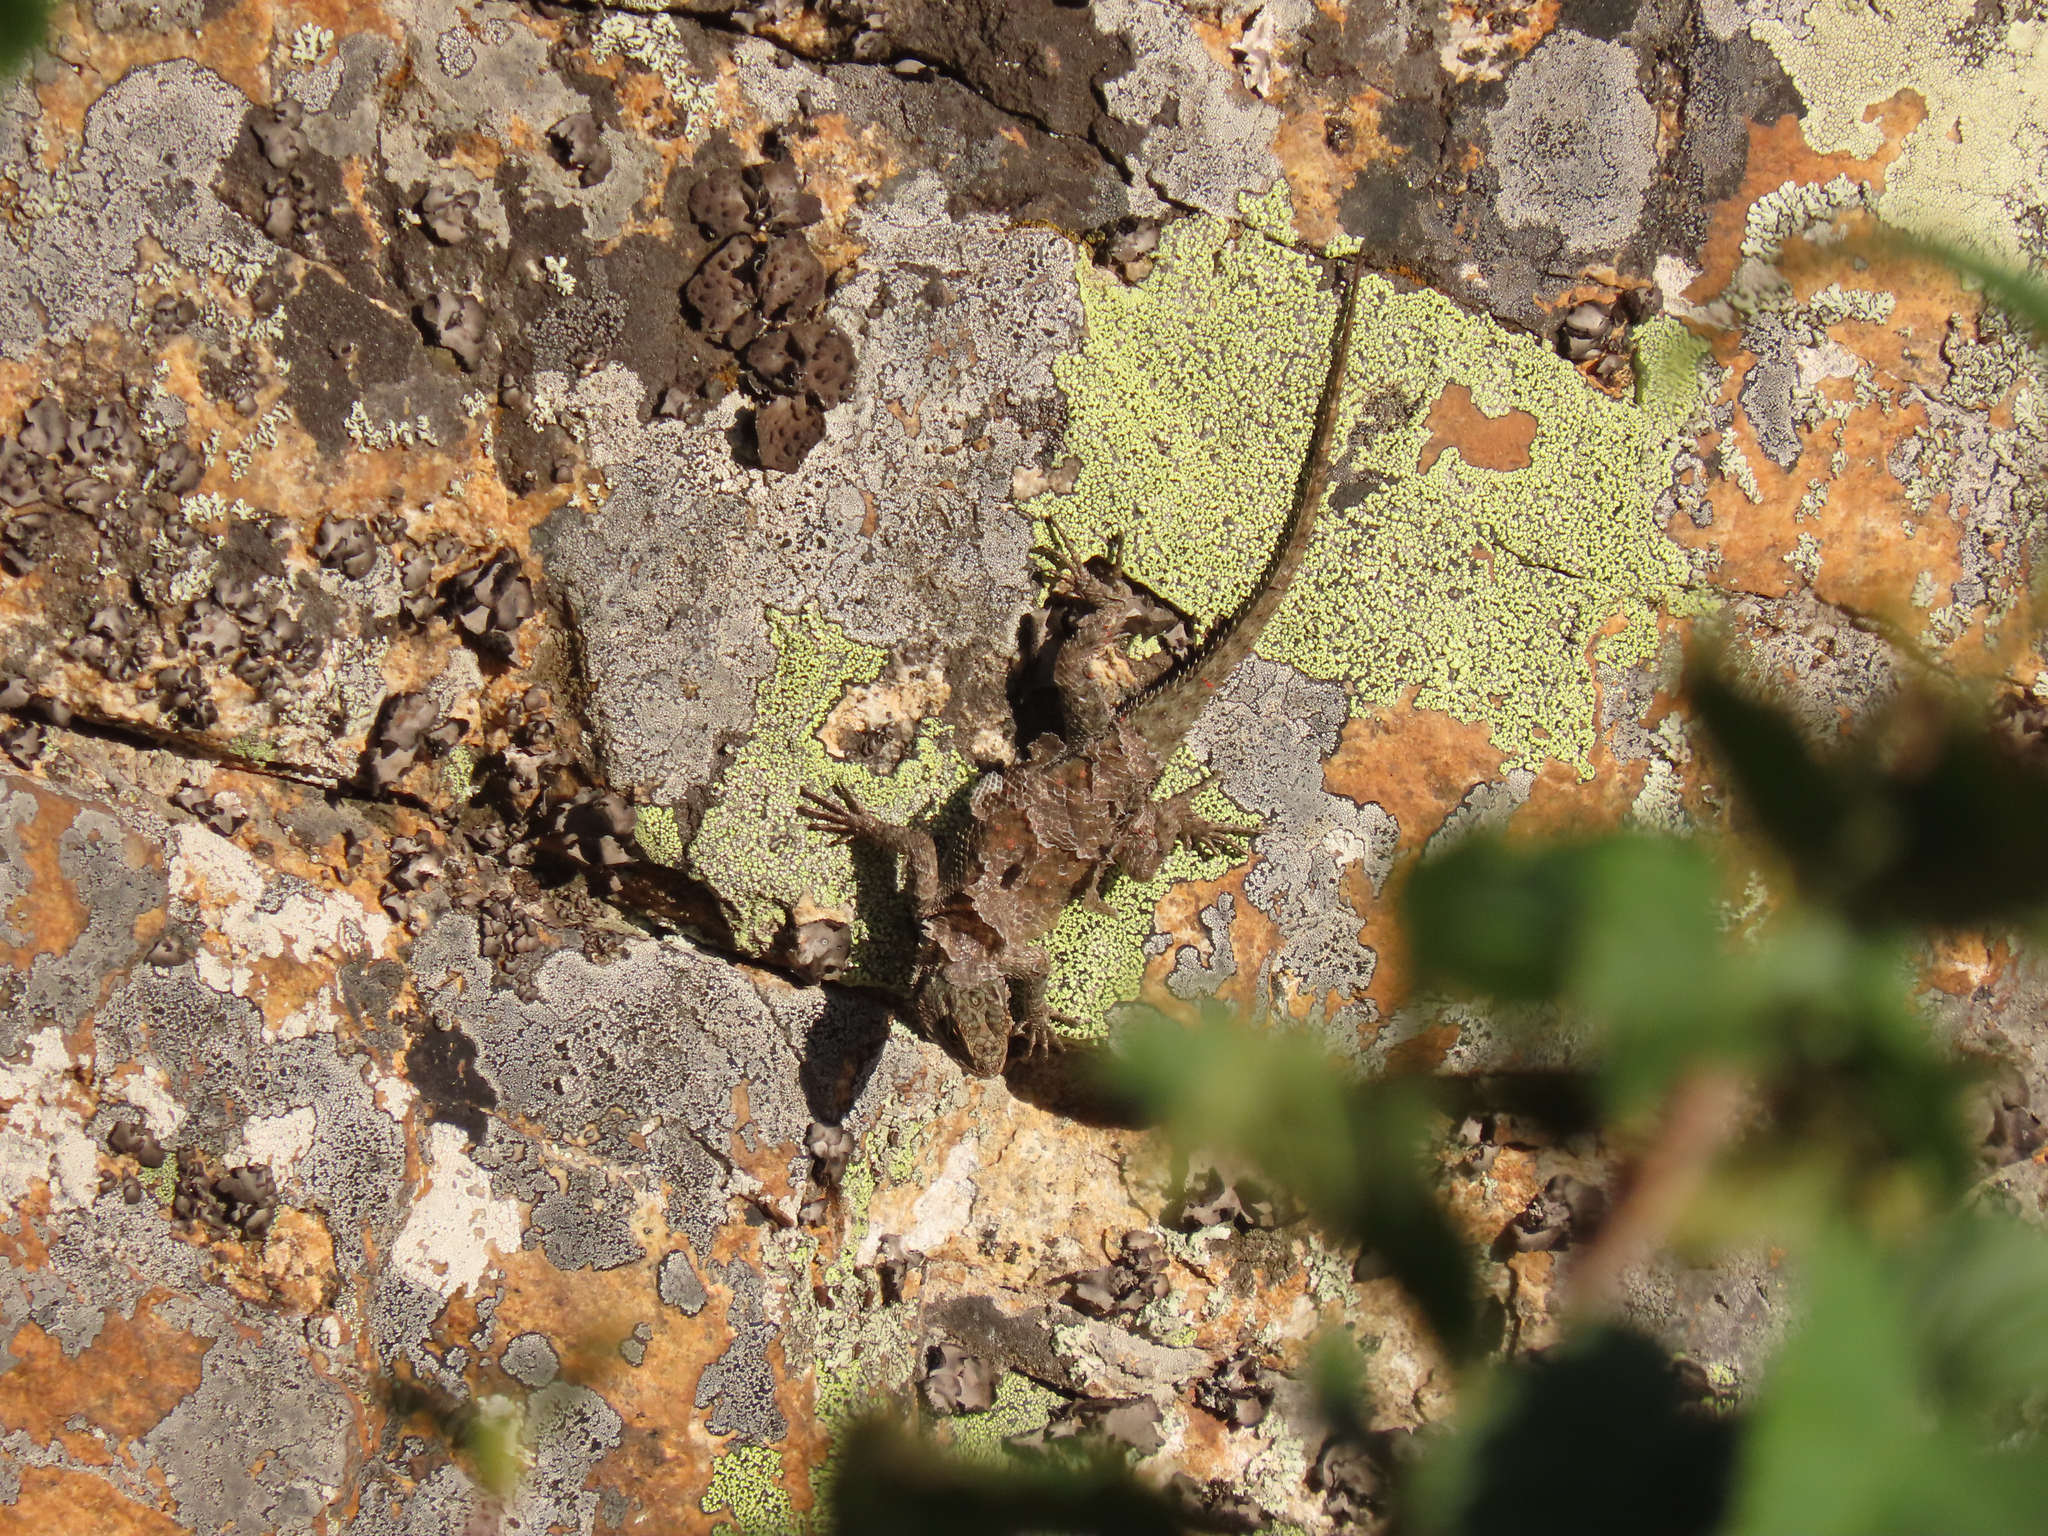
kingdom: Animalia
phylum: Chordata
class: Squamata
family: Phrynosomatidae
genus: Sceloporus
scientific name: Sceloporus jarrovii
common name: Yarrow's spiny lizard
